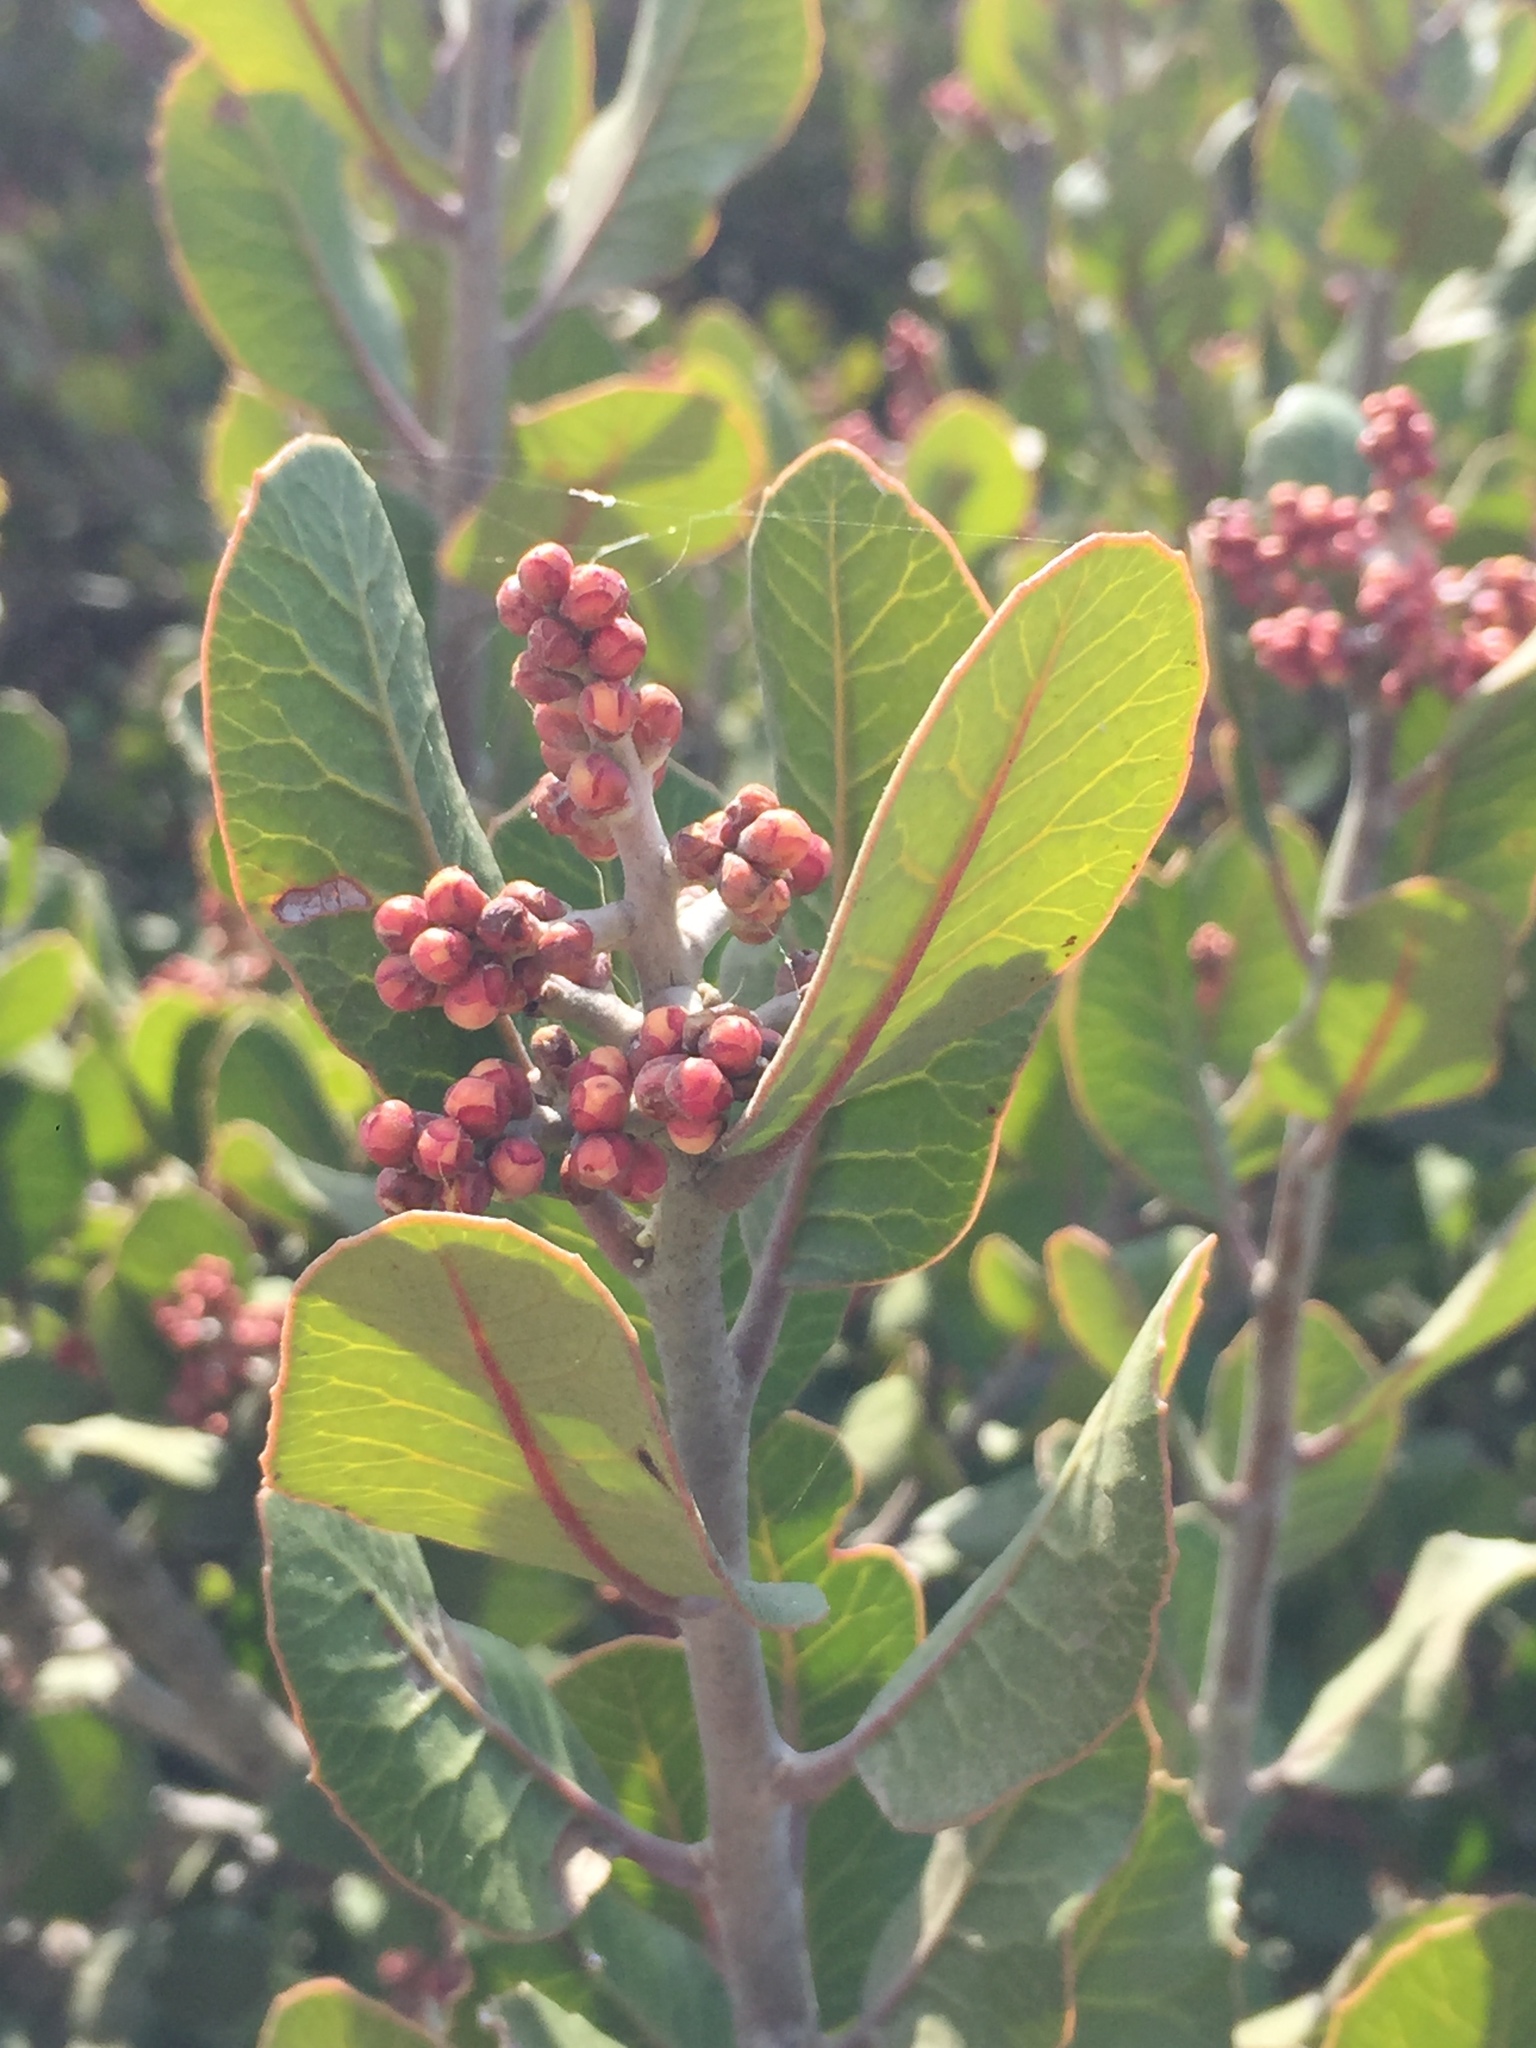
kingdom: Plantae
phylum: Tracheophyta
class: Magnoliopsida
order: Sapindales
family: Anacardiaceae
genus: Rhus
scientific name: Rhus integrifolia
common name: Lemonade sumac
